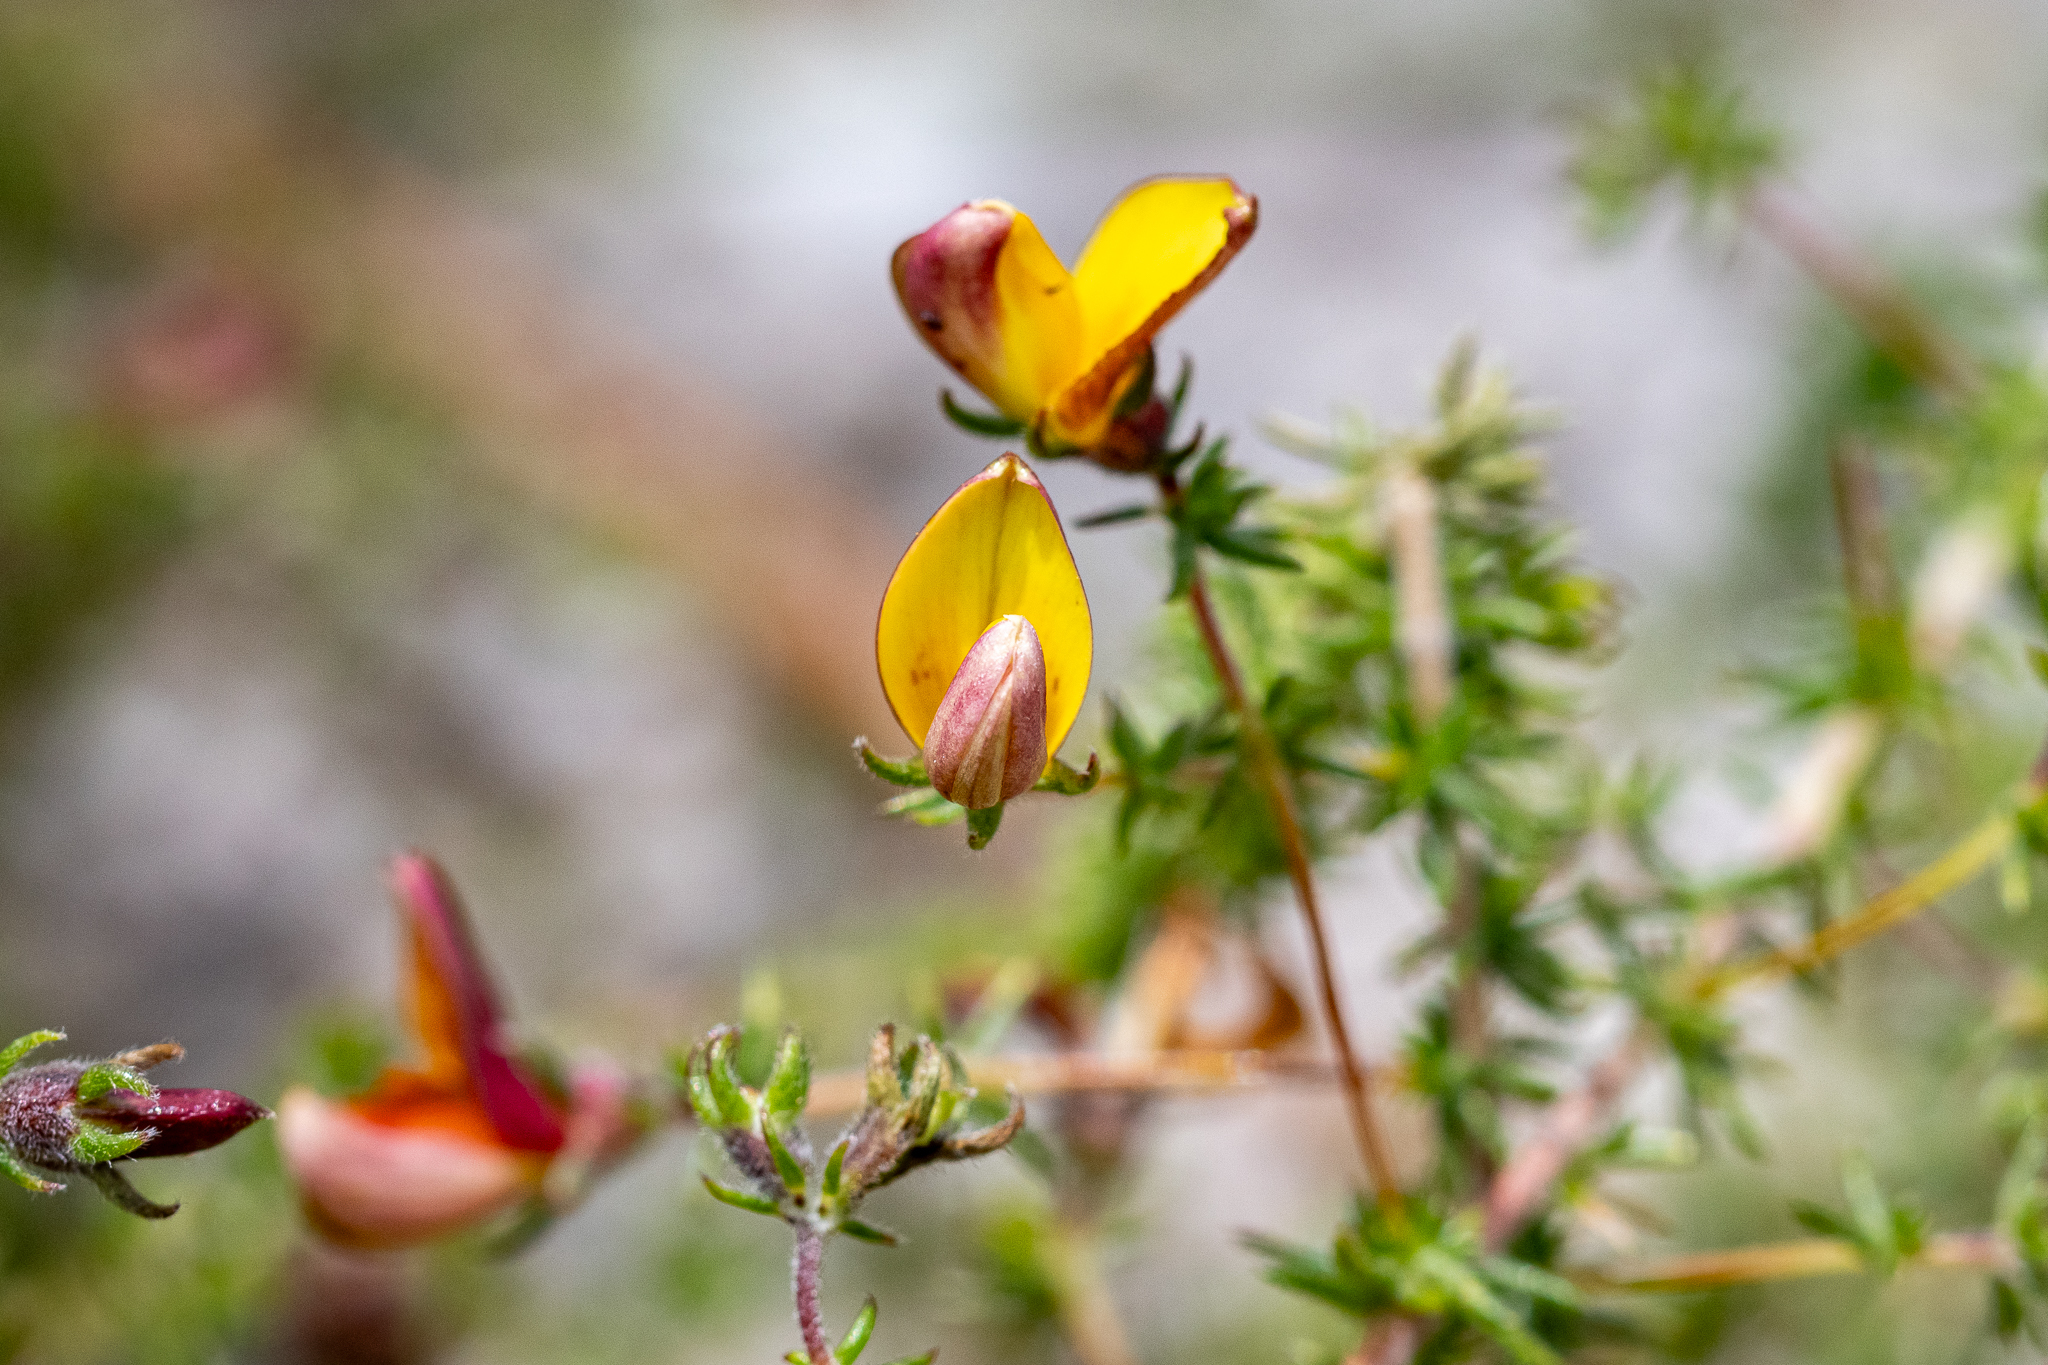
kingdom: Plantae
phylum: Tracheophyta
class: Magnoliopsida
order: Fabales
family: Fabaceae
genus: Aspalathus
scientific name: Aspalathus retroflexa
